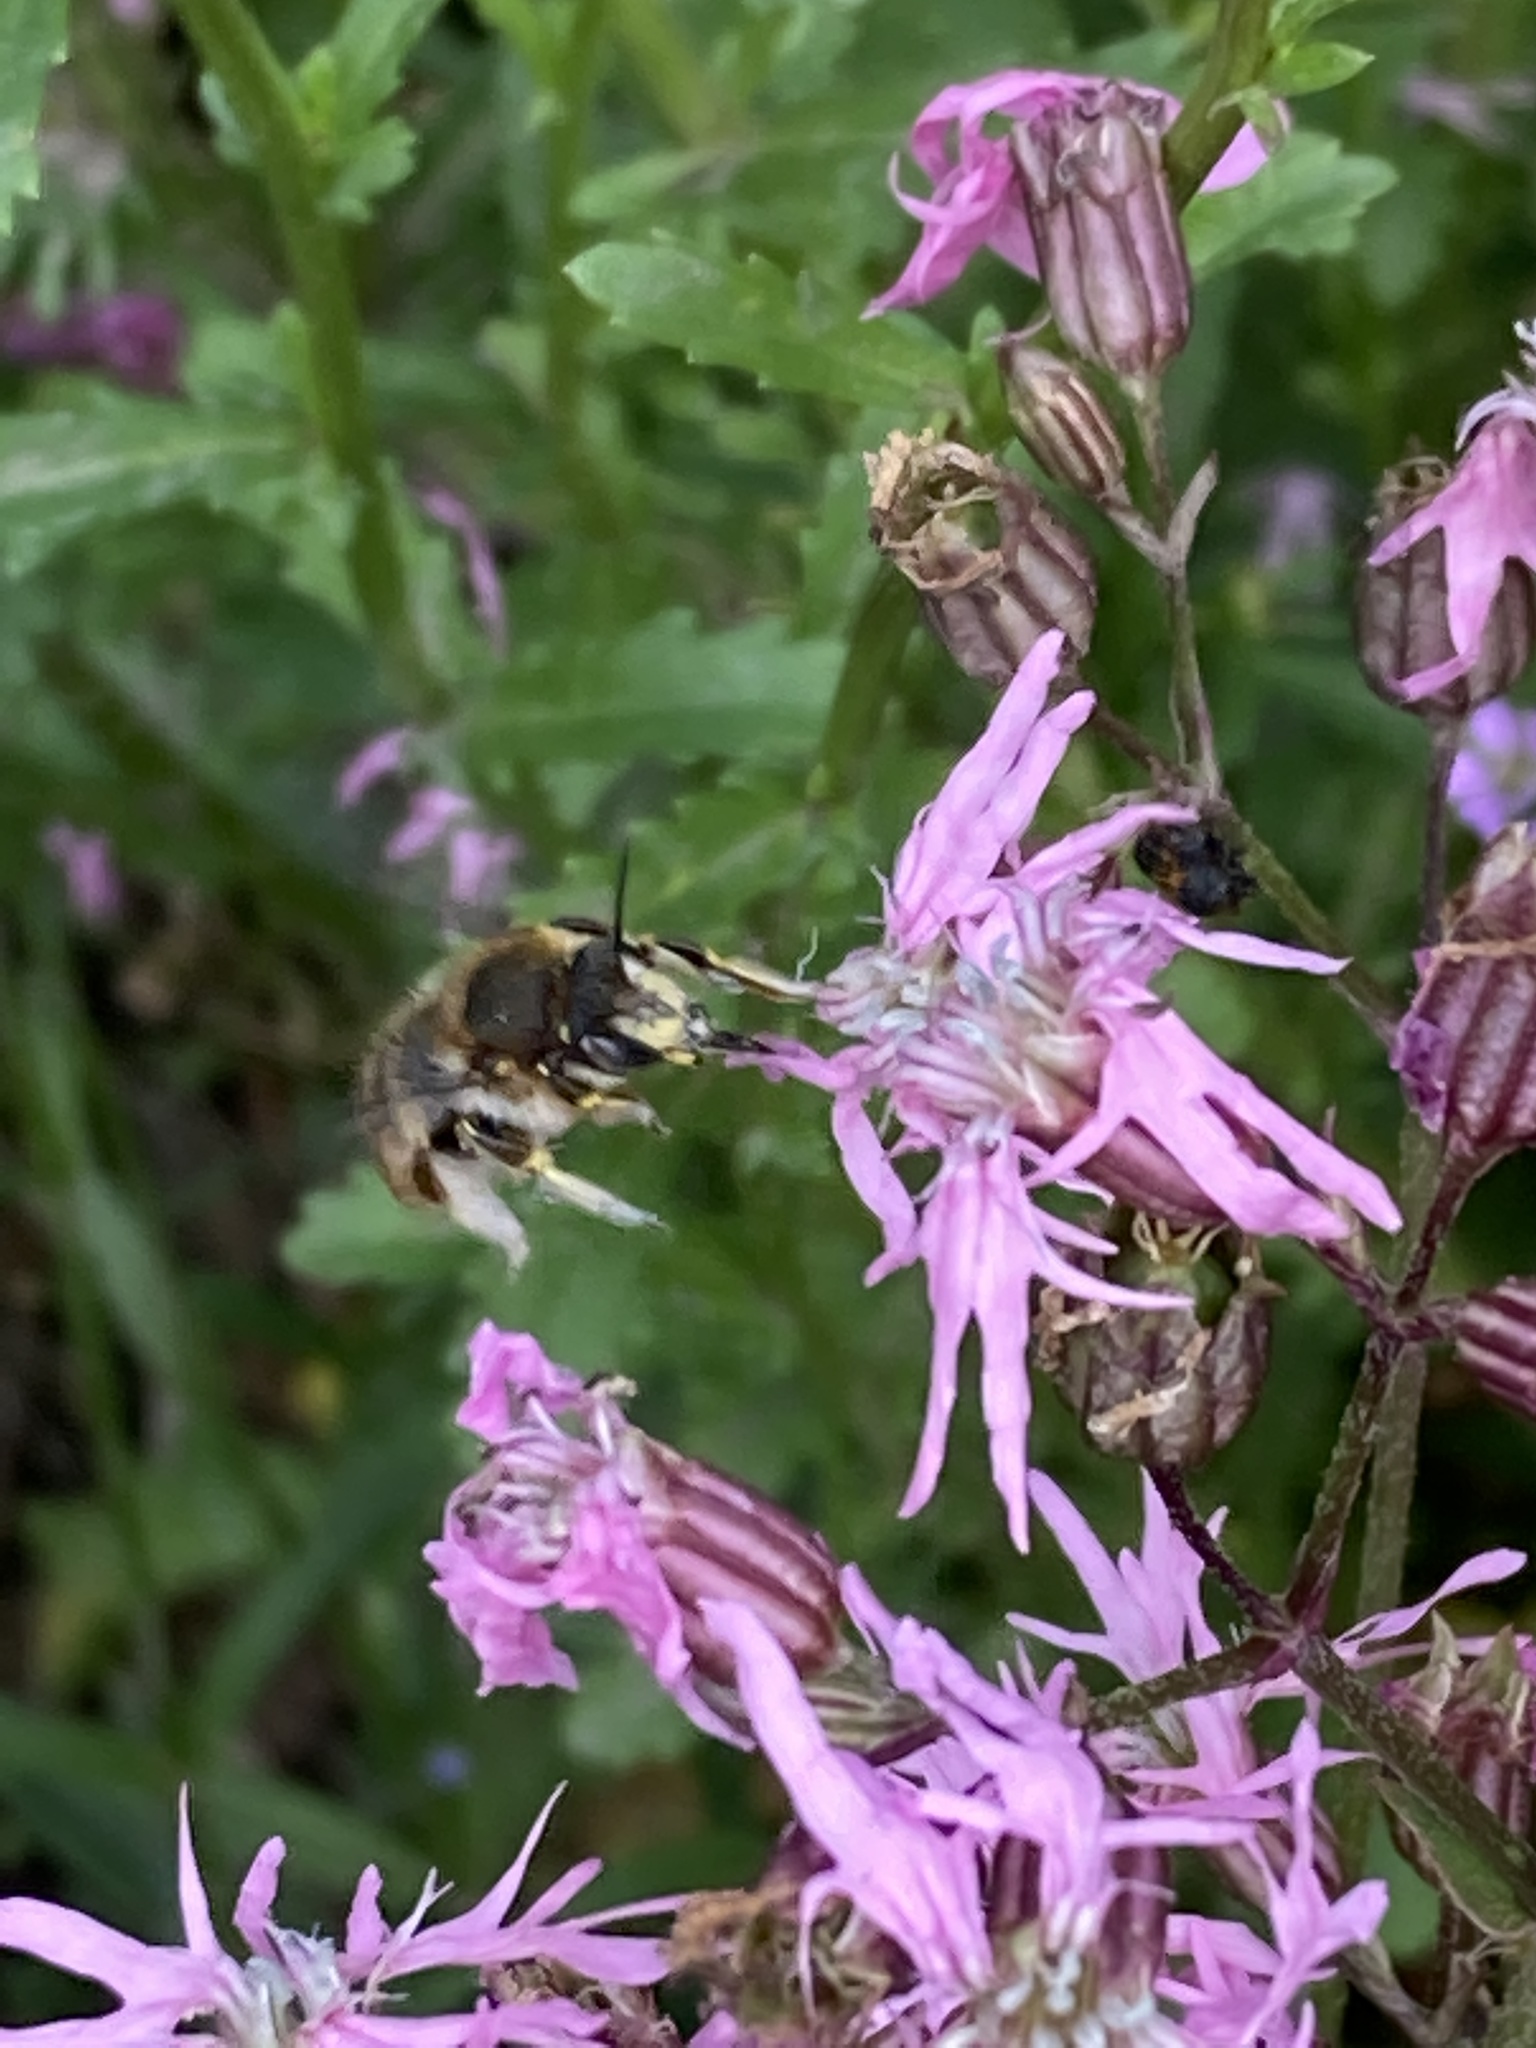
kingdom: Animalia
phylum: Arthropoda
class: Insecta
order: Hymenoptera
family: Megachilidae
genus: Anthidium
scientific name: Anthidium manicatum
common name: Wool carder bee
